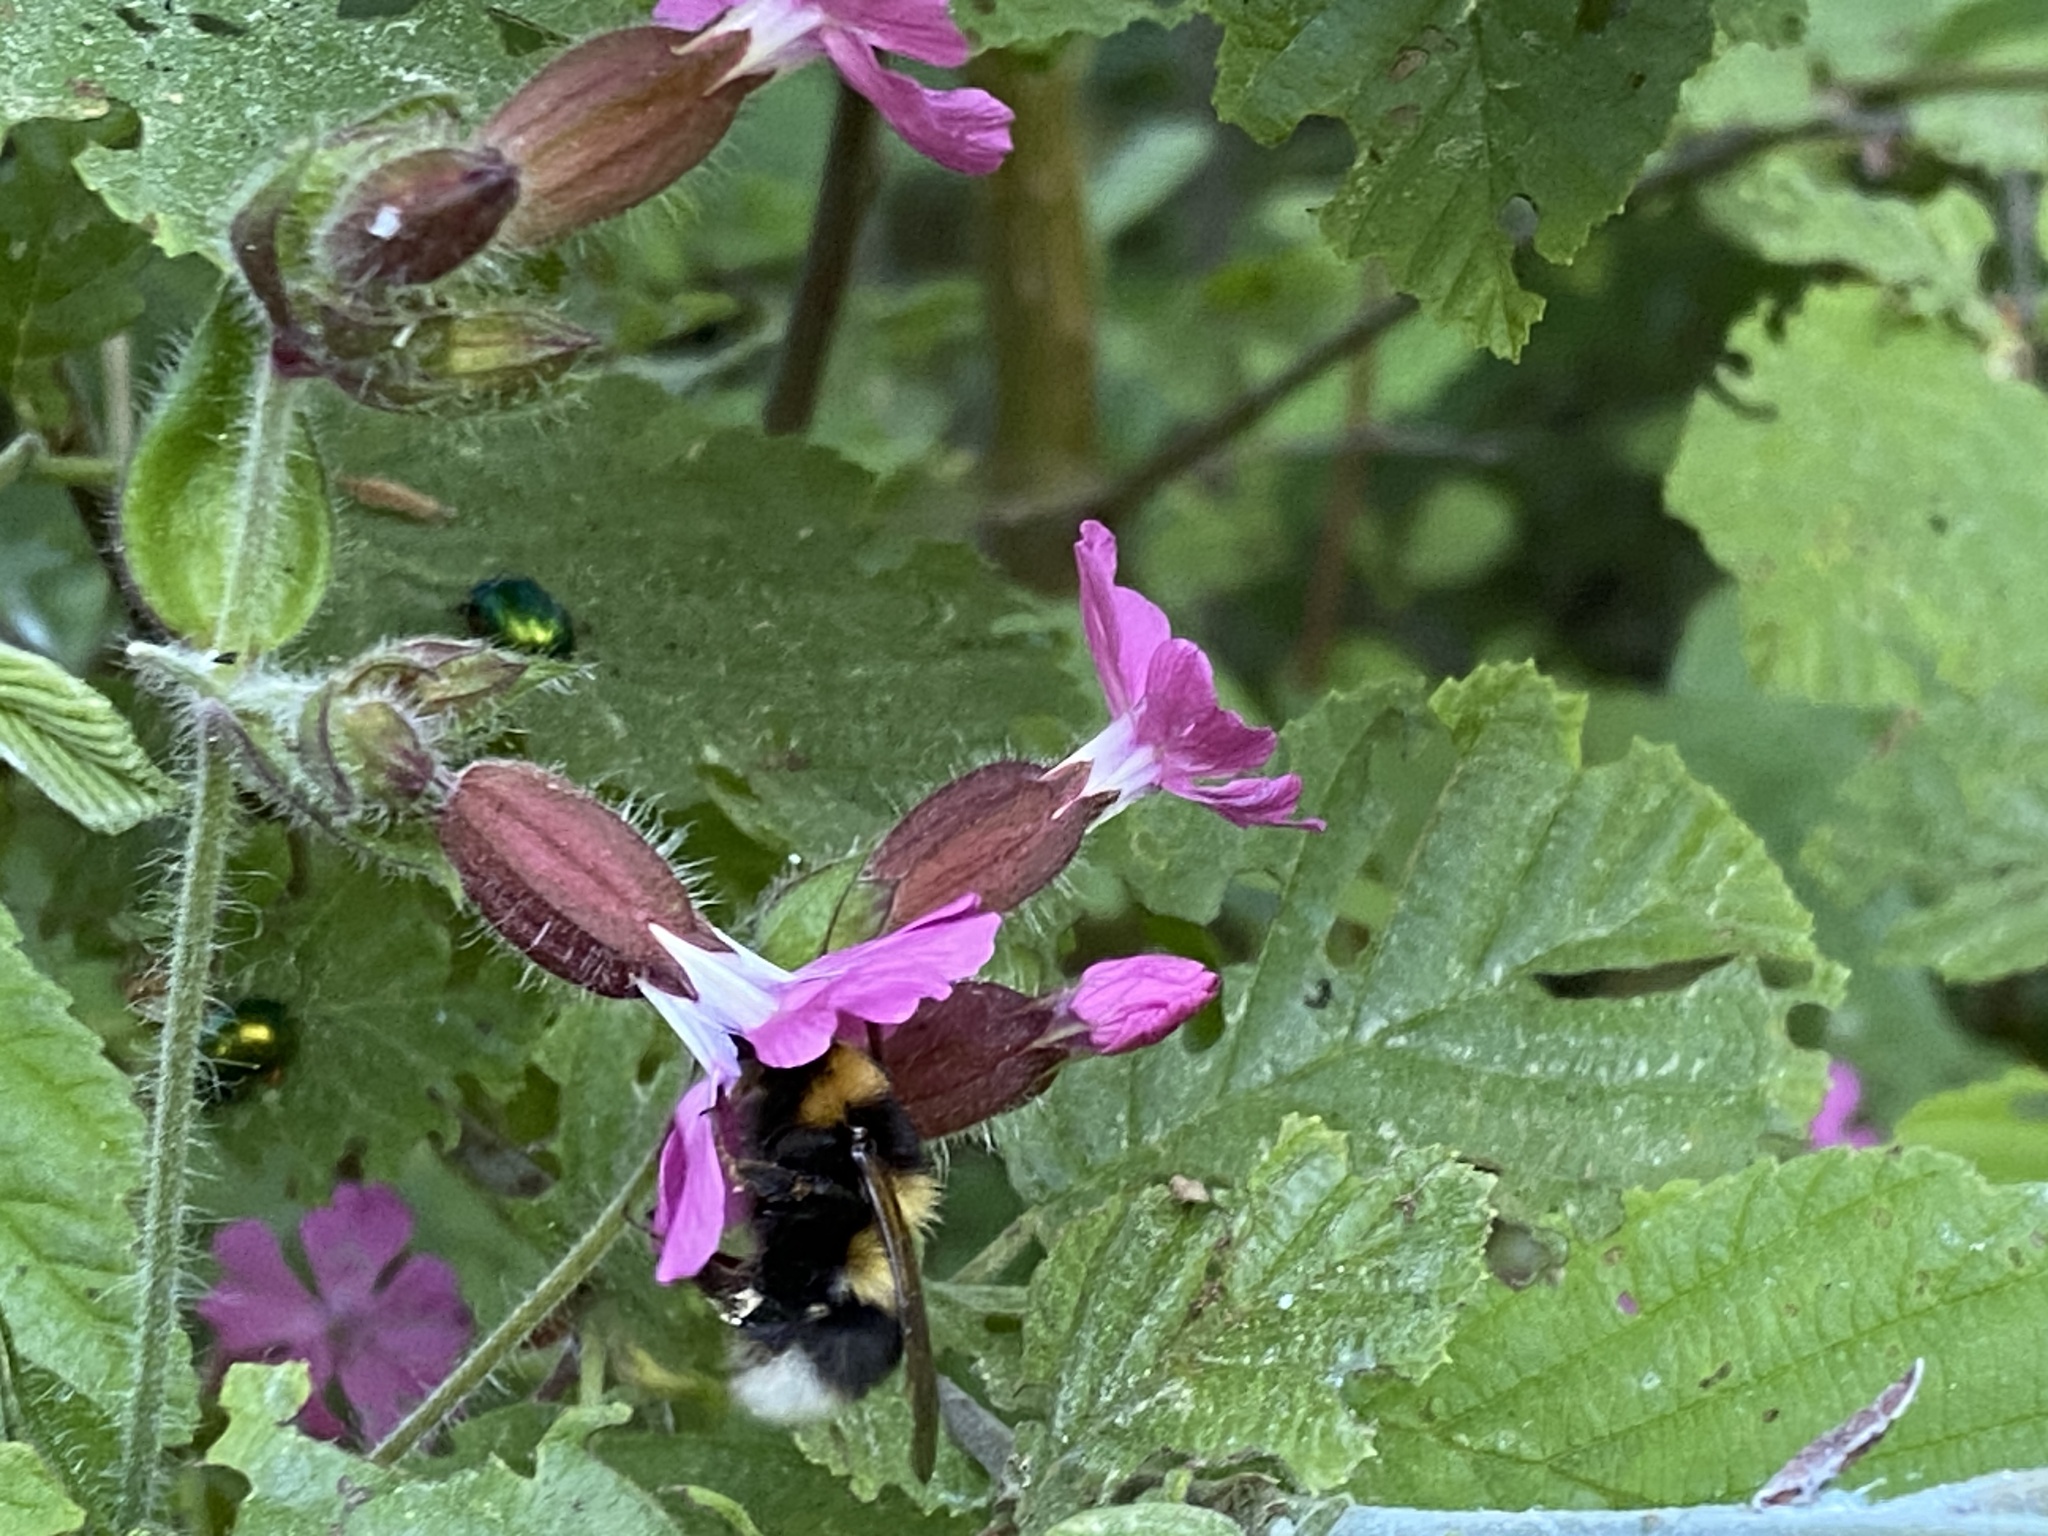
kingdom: Animalia
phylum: Arthropoda
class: Insecta
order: Hymenoptera
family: Apidae
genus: Bombus
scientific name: Bombus hortorum
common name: Garden bumblebee
